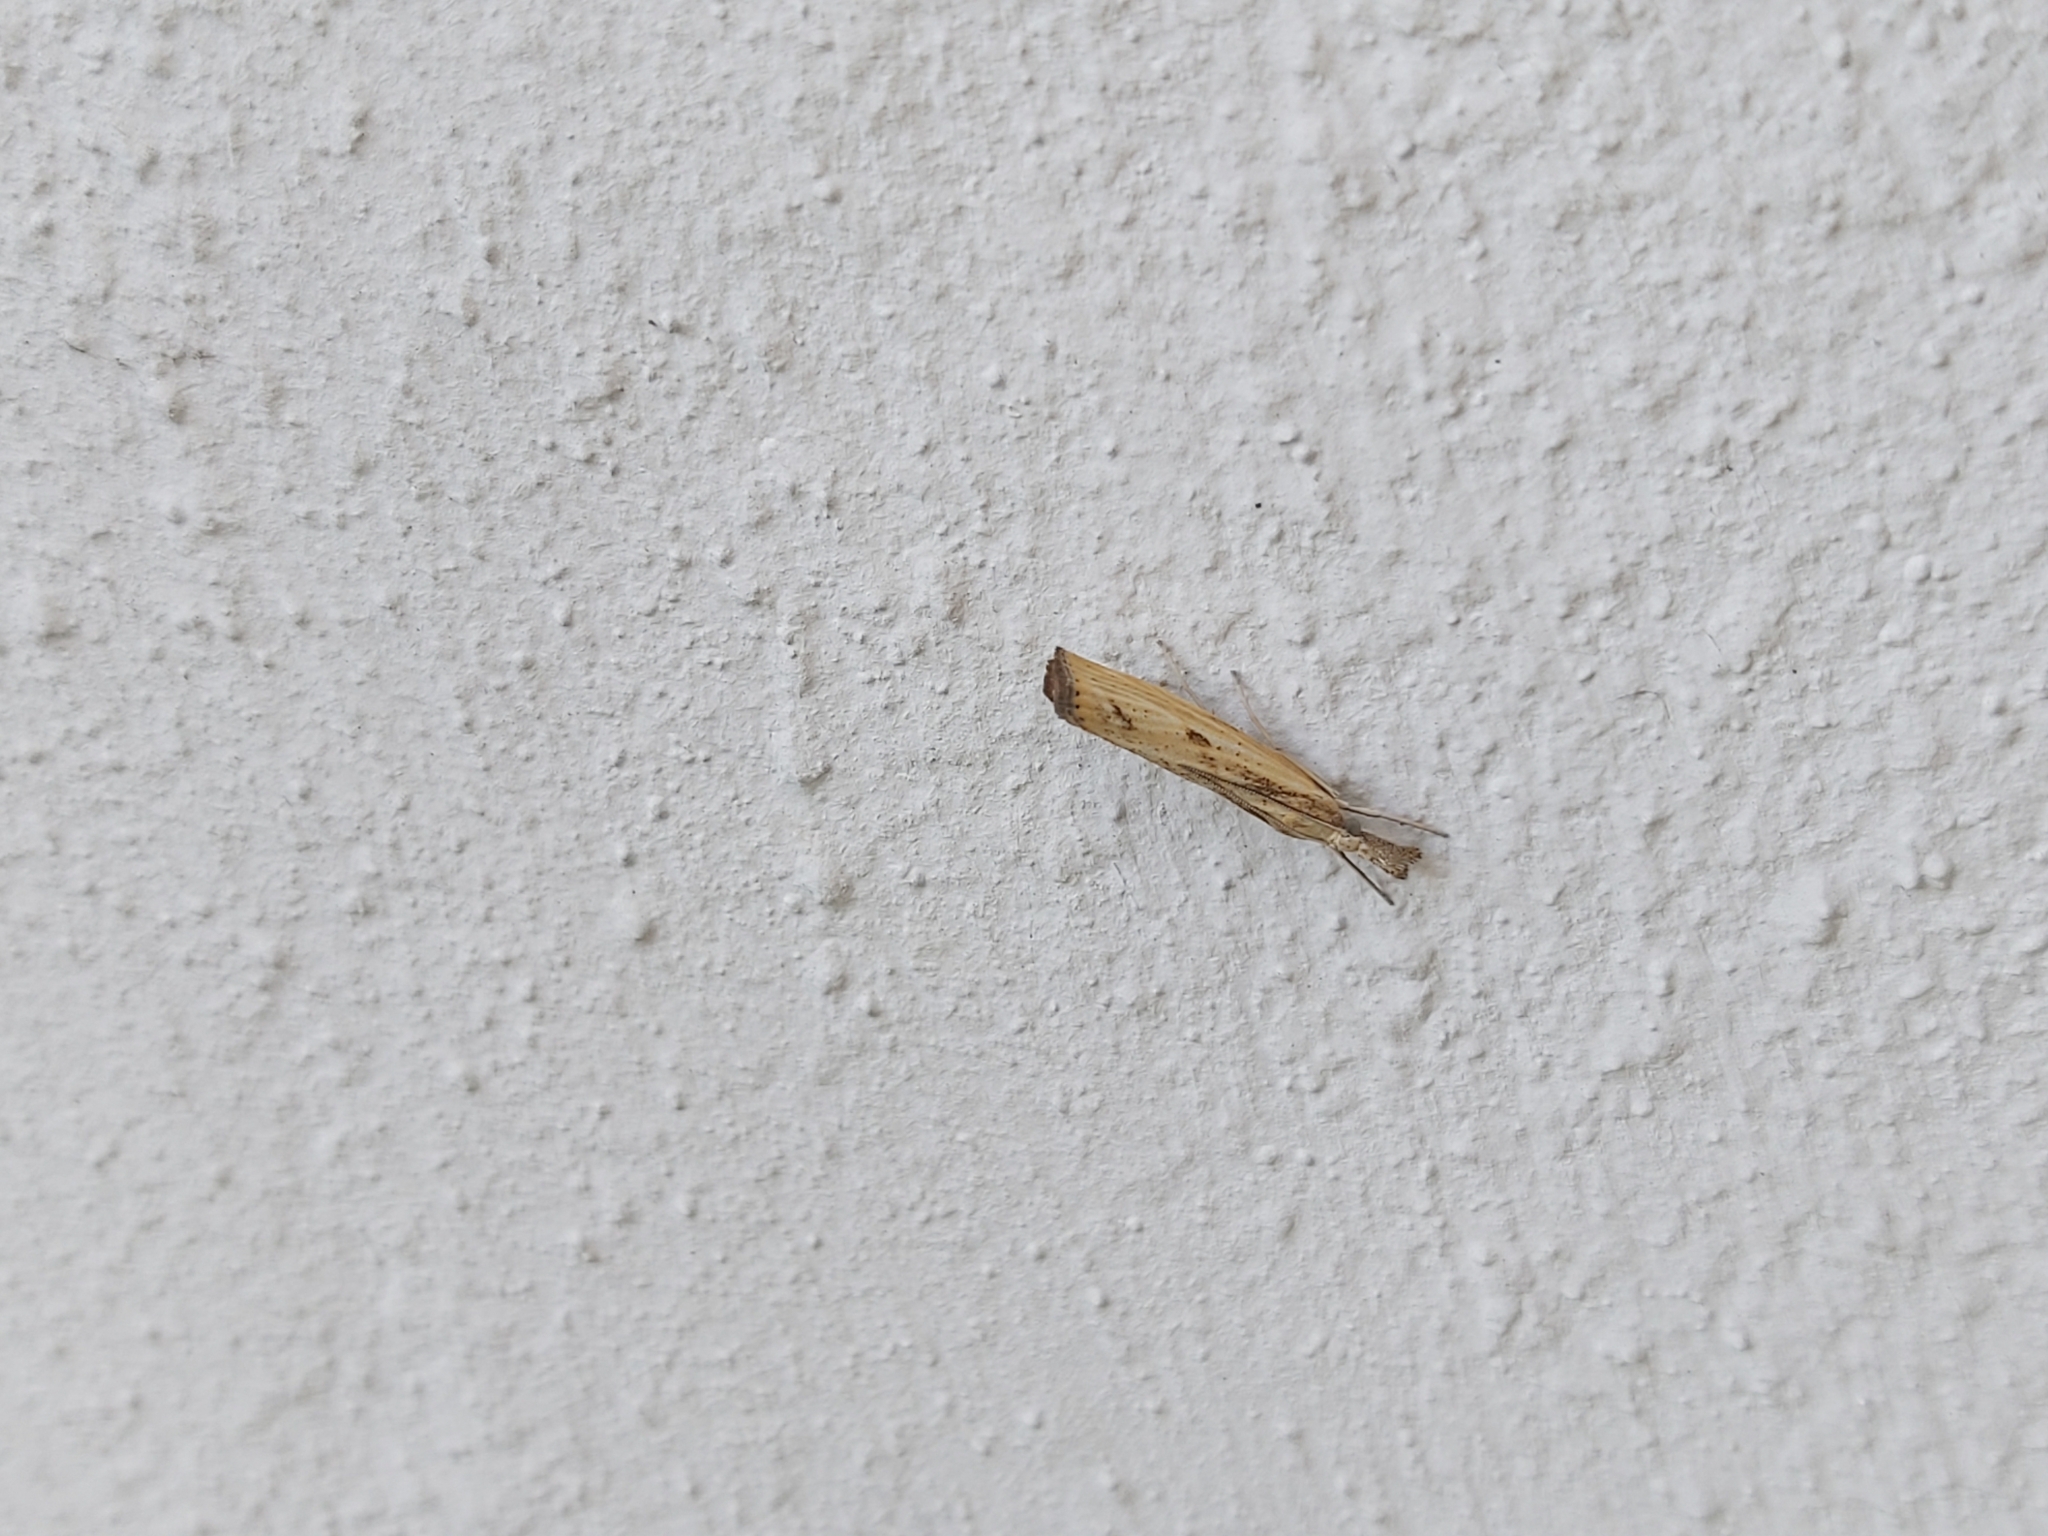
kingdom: Animalia
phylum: Arthropoda
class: Insecta
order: Lepidoptera
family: Crambidae
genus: Agriphila
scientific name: Agriphila inquinatella
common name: Barred grass-veneer
